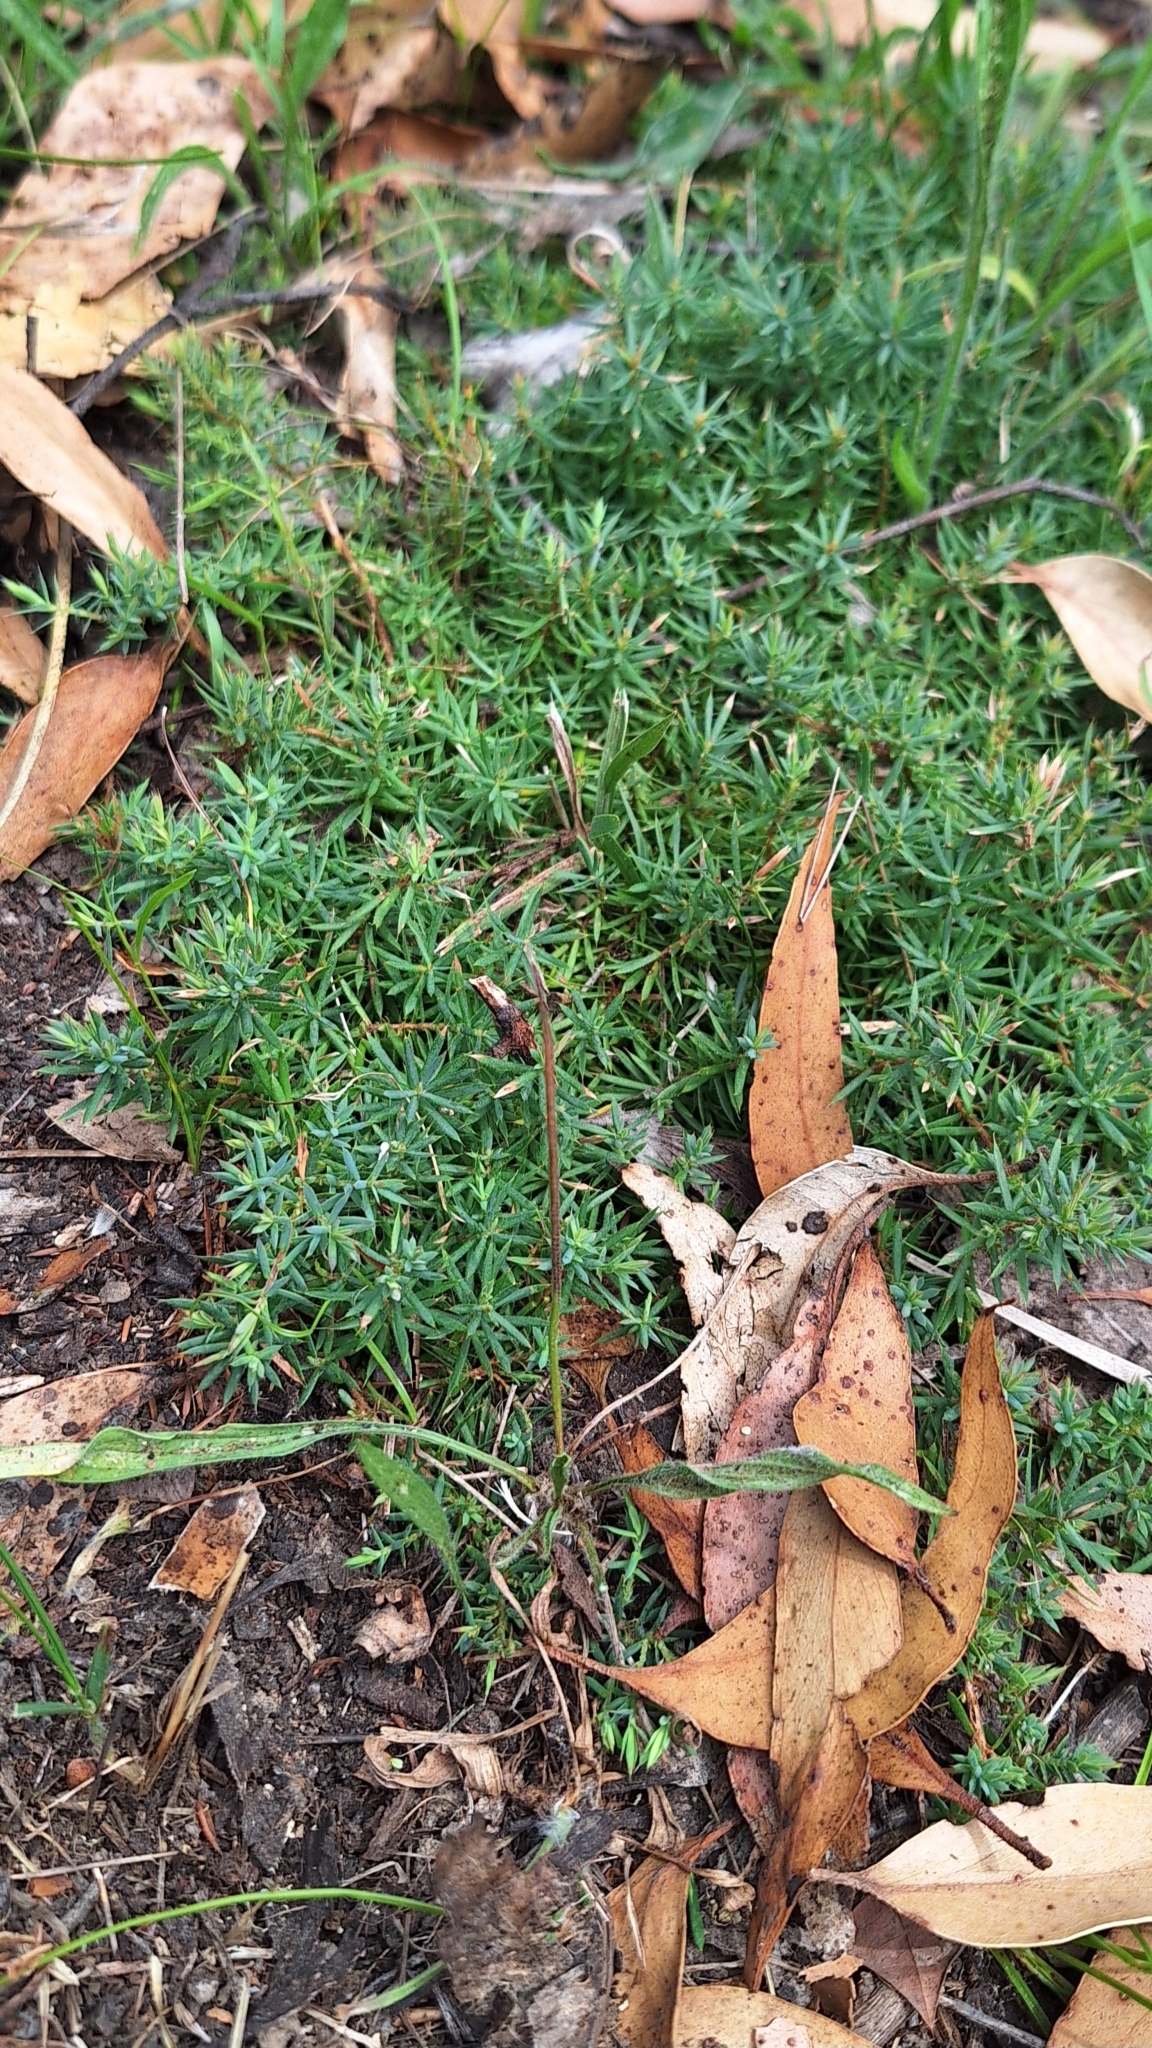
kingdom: Plantae
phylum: Tracheophyta
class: Magnoliopsida
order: Ericales
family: Ericaceae
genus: Styphelia
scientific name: Styphelia humifusa
